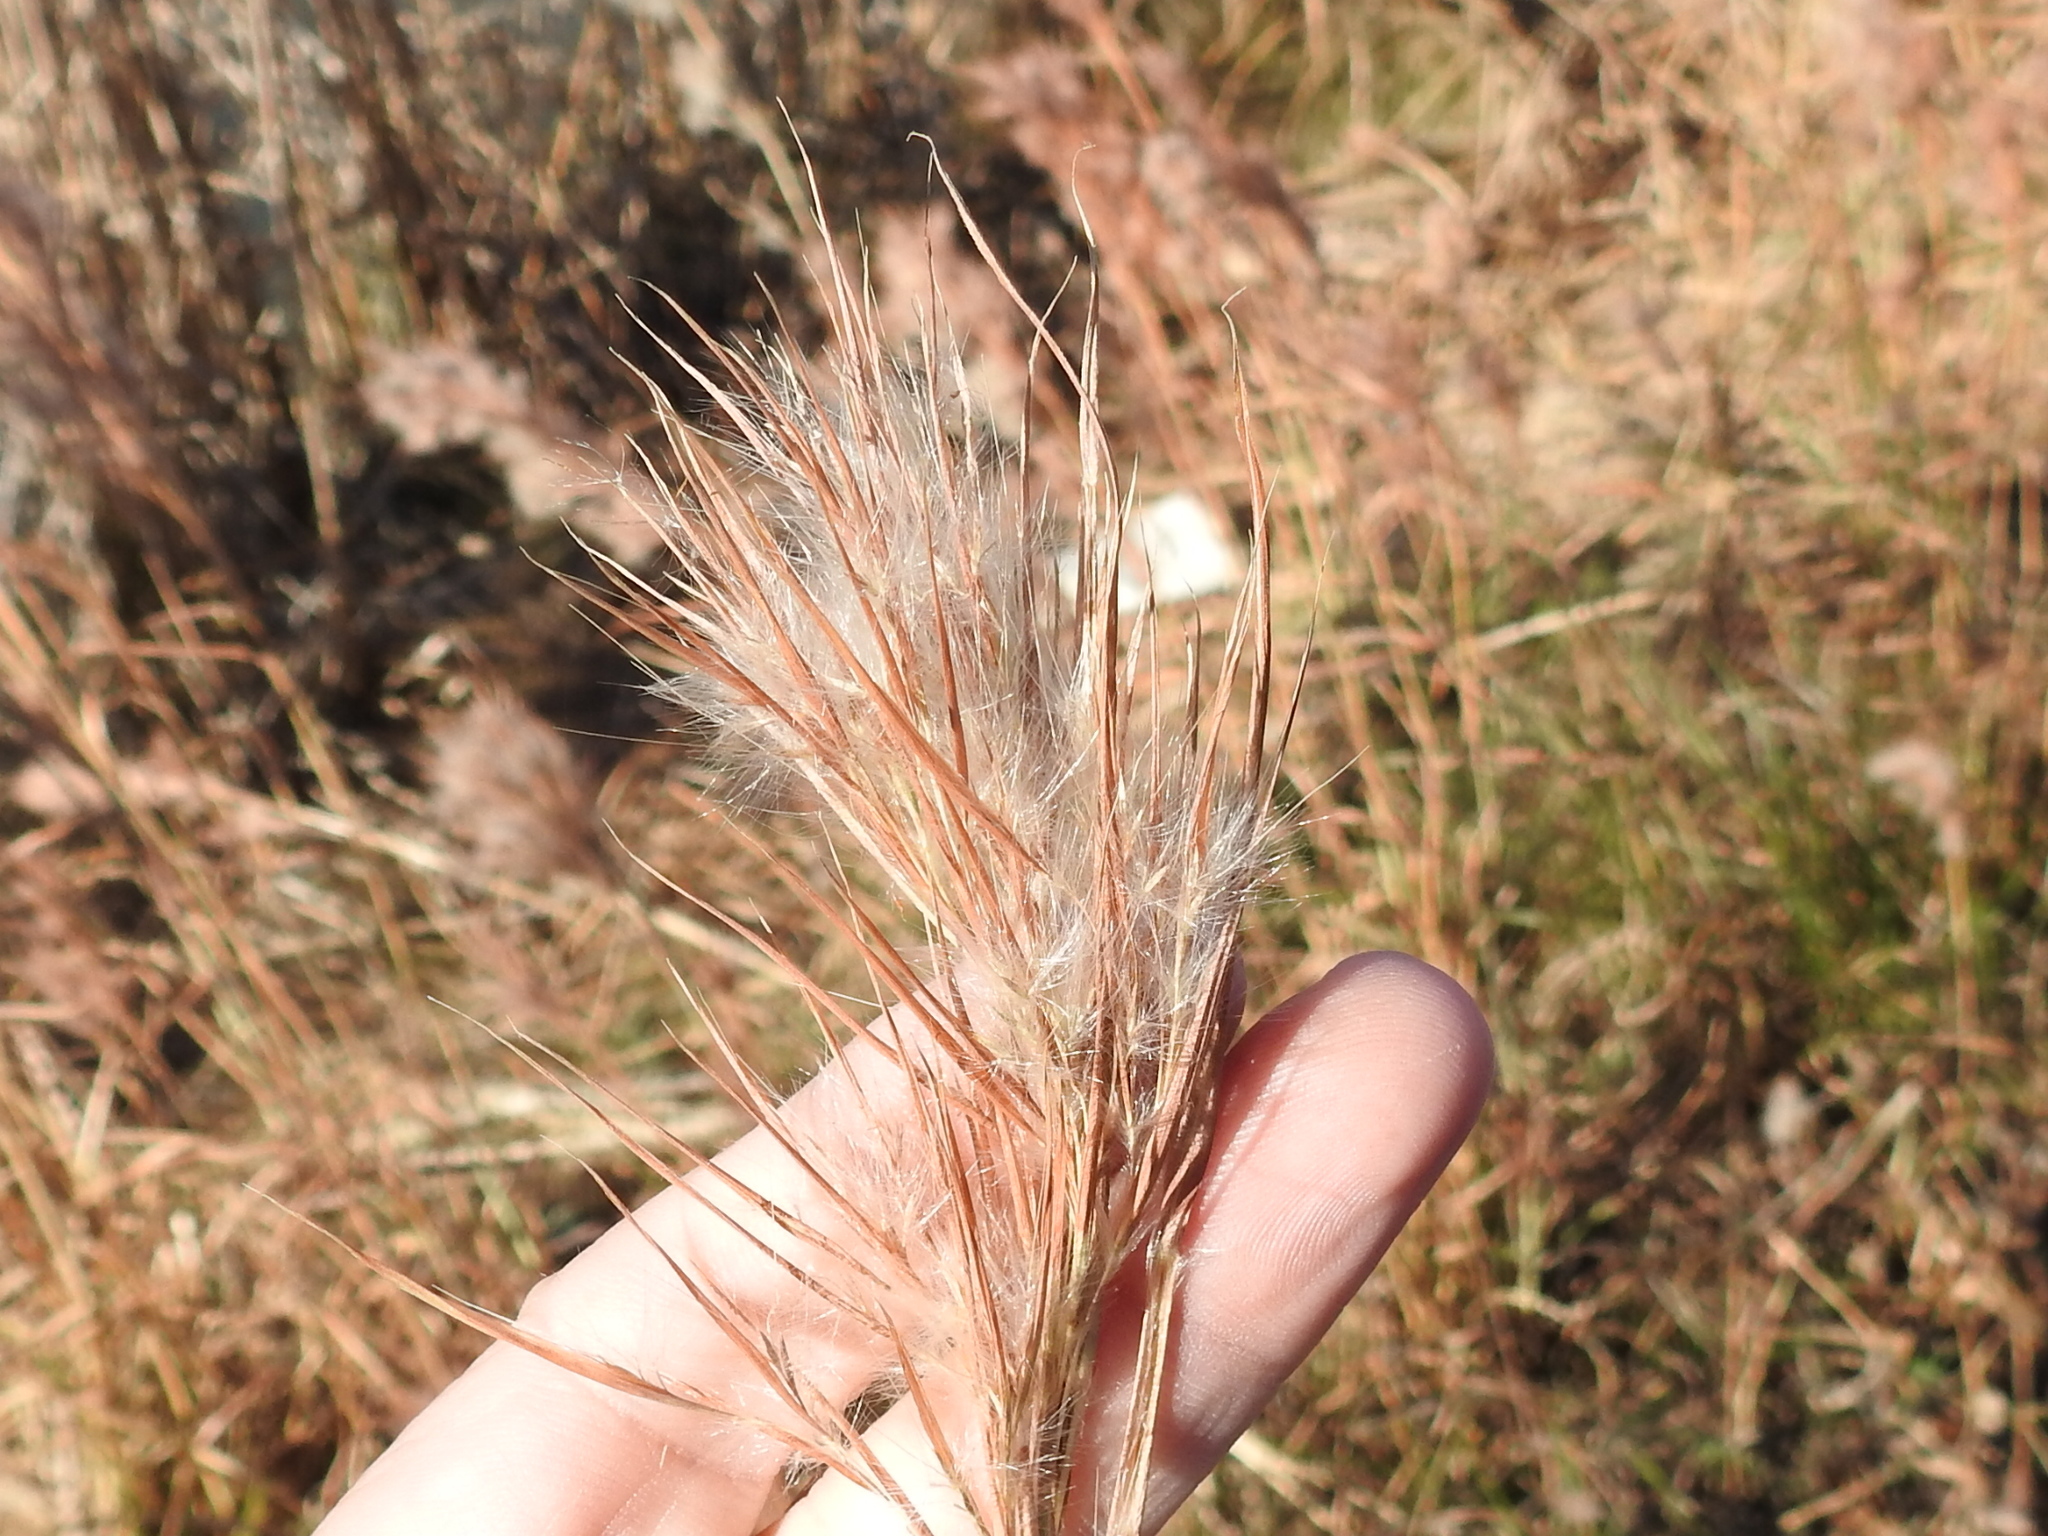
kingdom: Plantae
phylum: Tracheophyta
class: Liliopsida
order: Poales
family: Poaceae
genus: Andropogon
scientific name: Andropogon tenuispatheus
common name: Bushy bluestem
